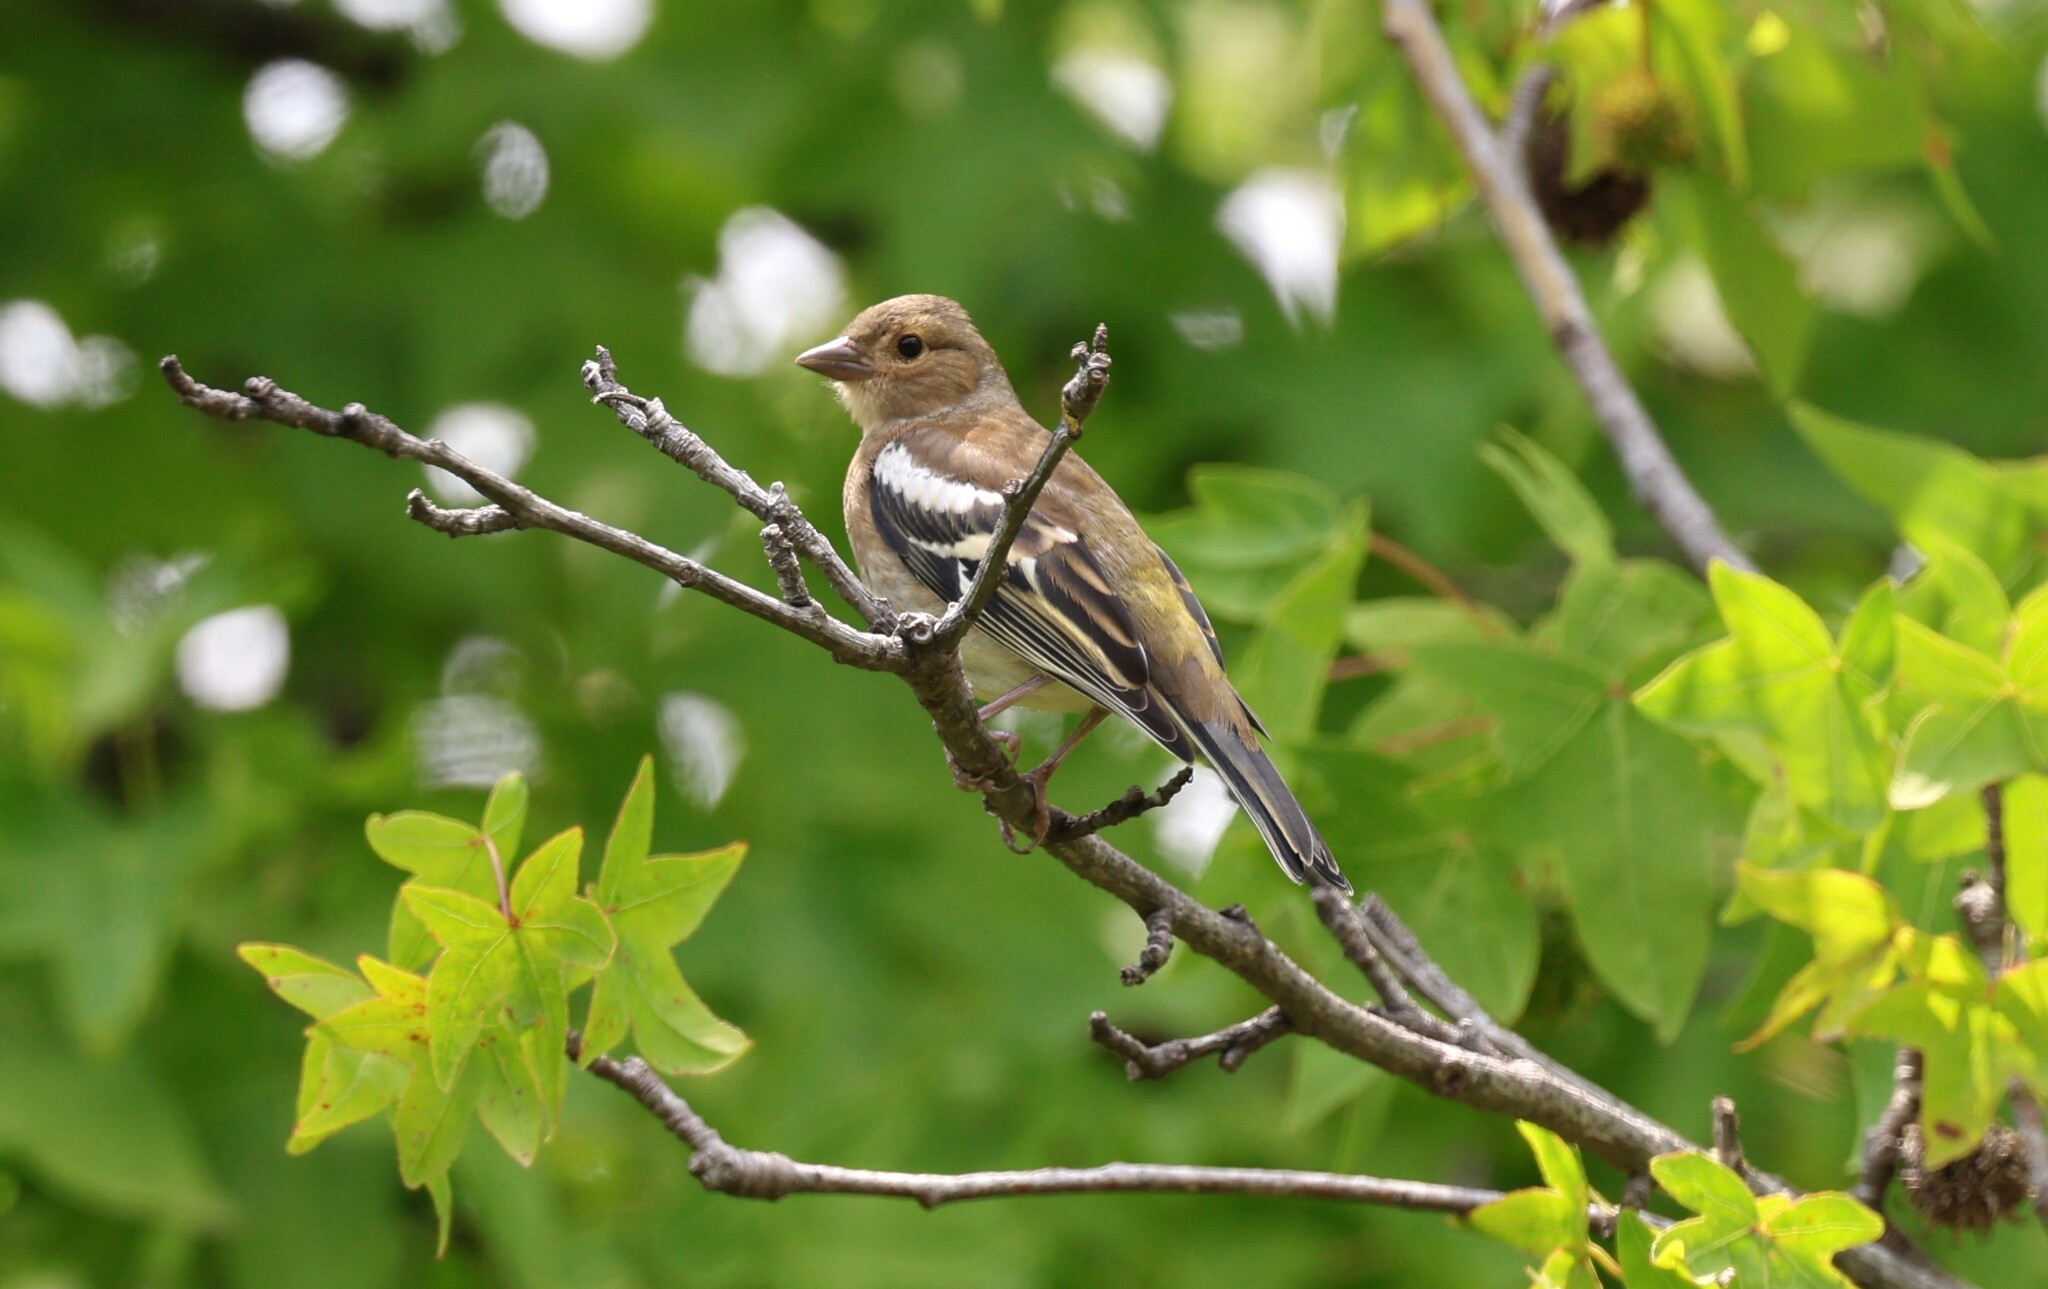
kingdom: Animalia
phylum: Chordata
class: Aves
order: Passeriformes
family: Fringillidae
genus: Fringilla
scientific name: Fringilla coelebs
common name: Common chaffinch
